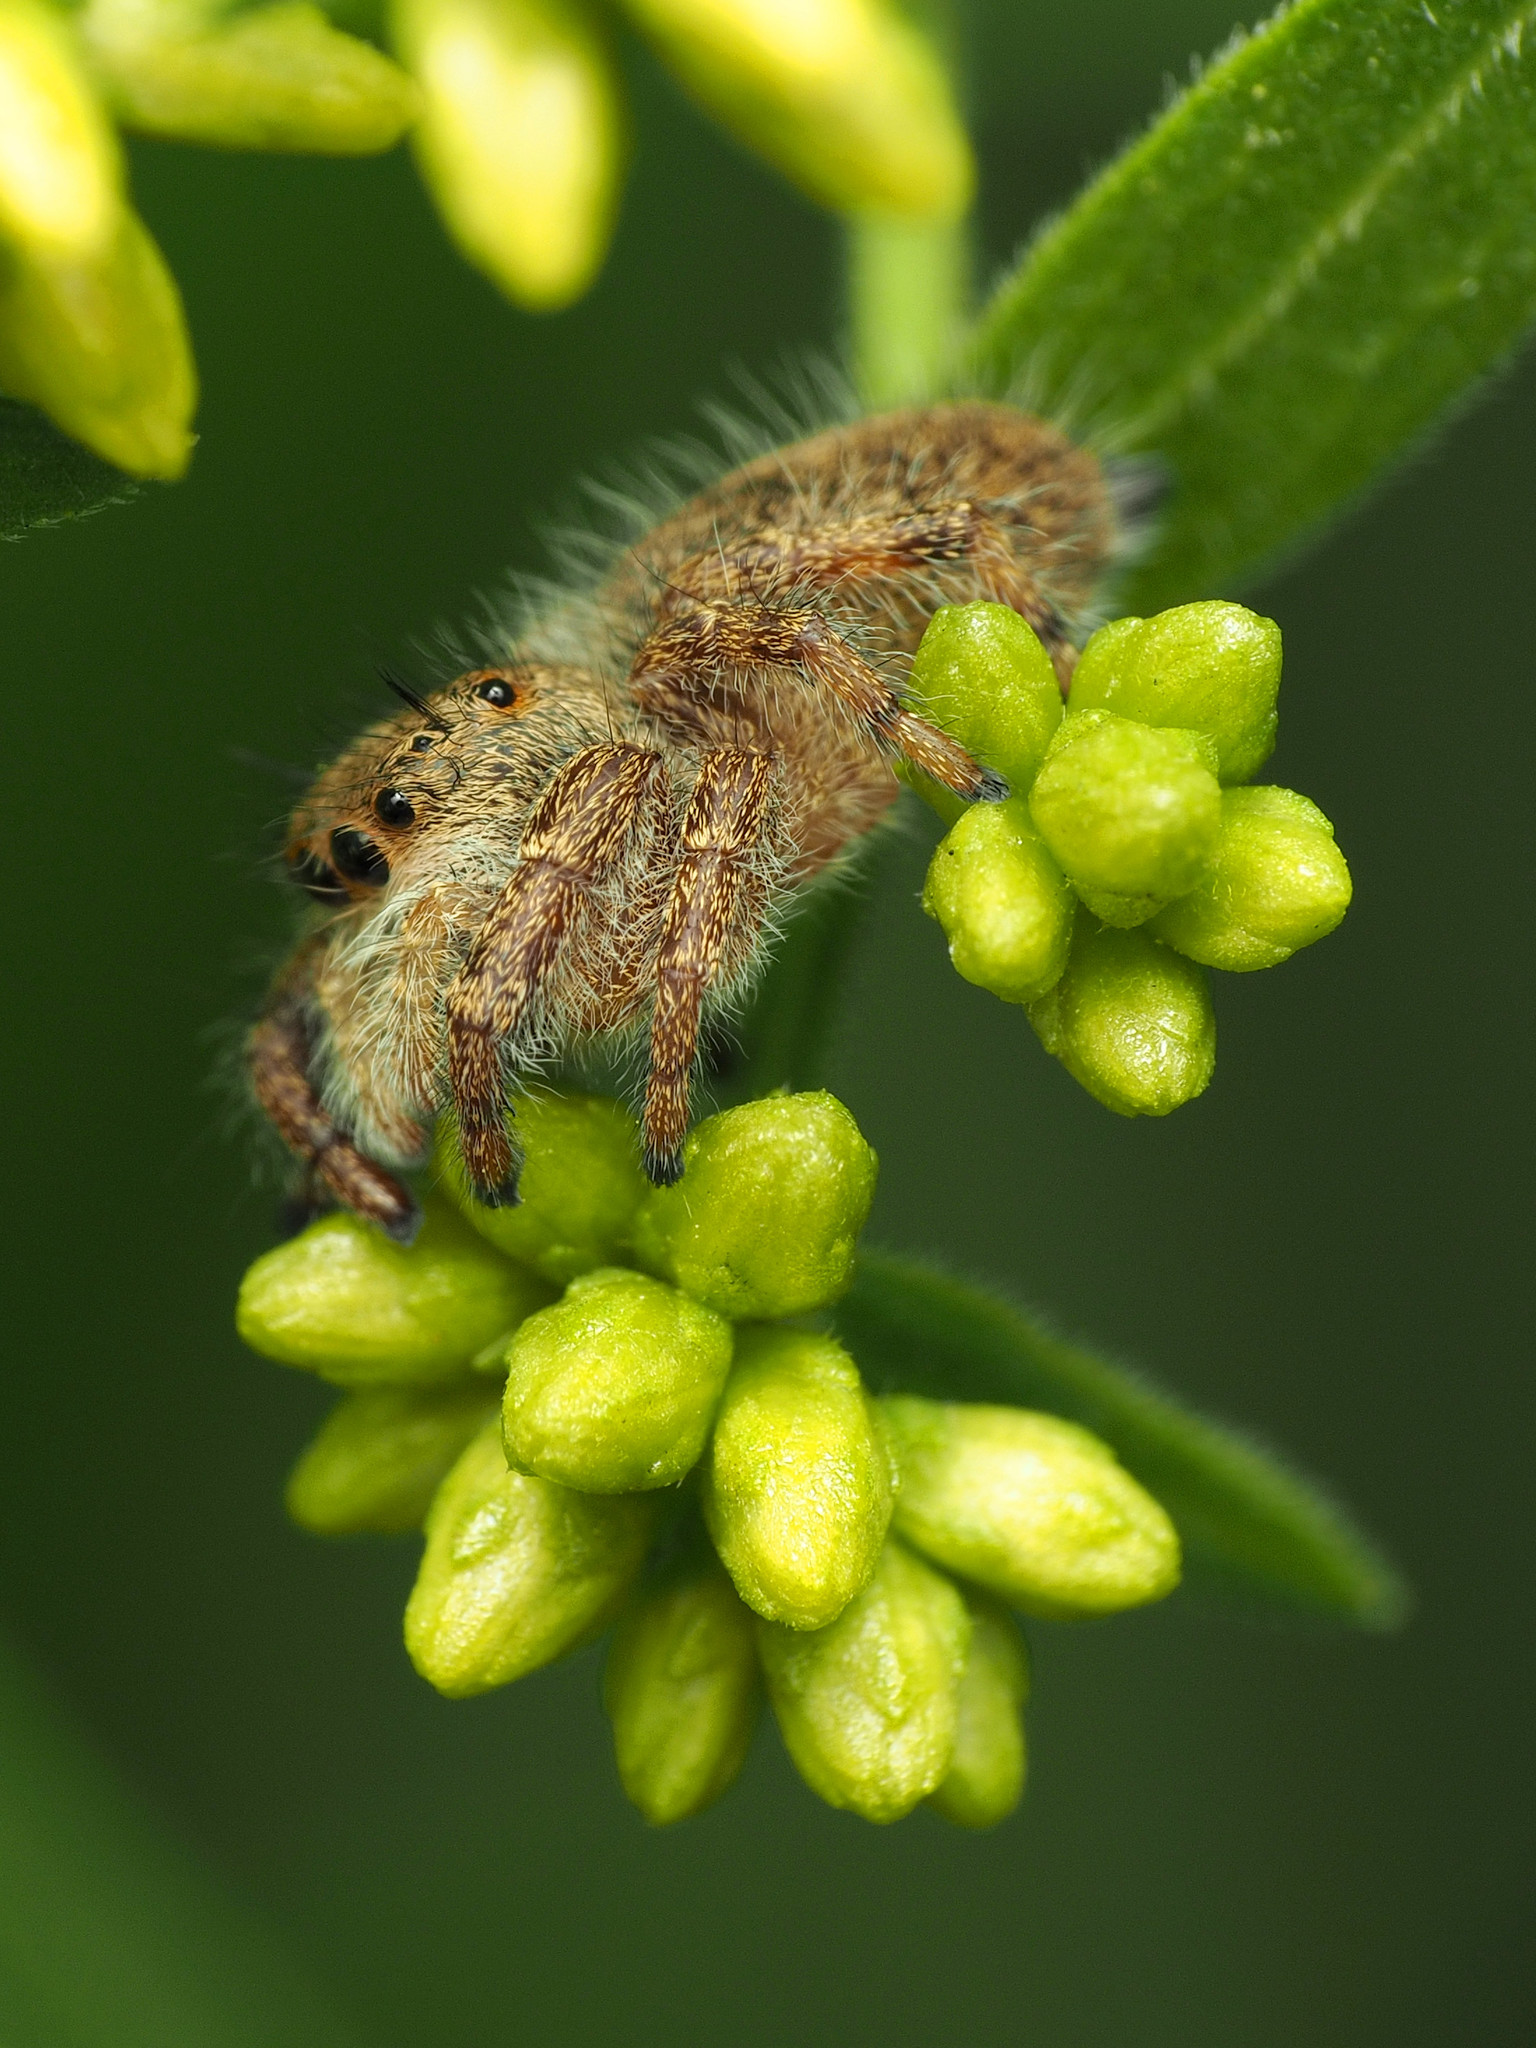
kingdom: Animalia
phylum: Arthropoda
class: Arachnida
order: Araneae
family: Salticidae
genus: Phidippus
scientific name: Phidippus princeps
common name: Grayish jumping spider
